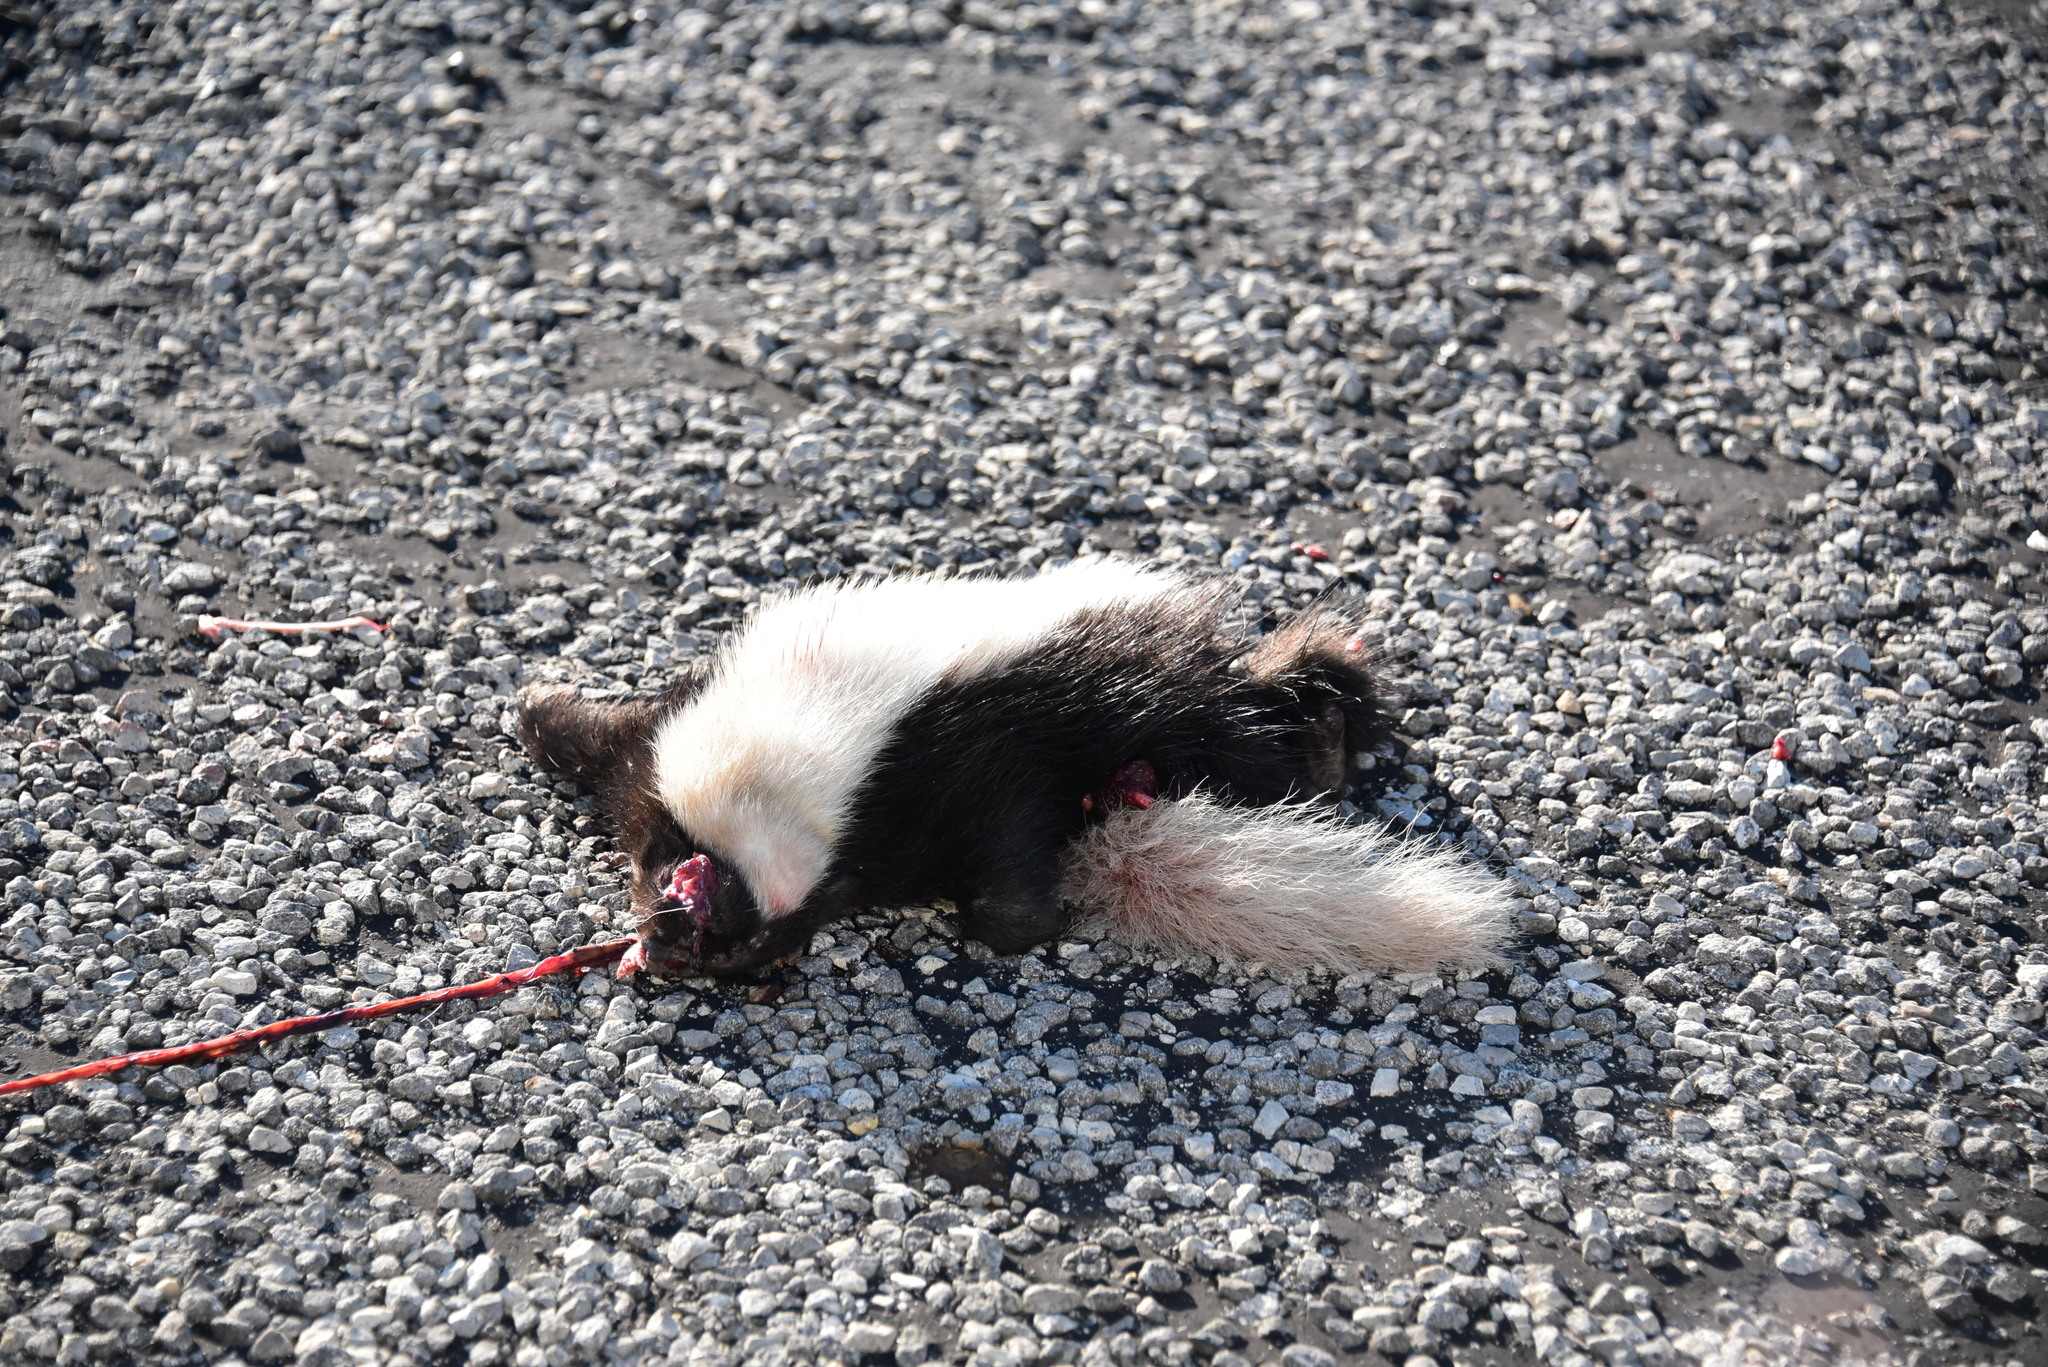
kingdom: Animalia
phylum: Chordata
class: Mammalia
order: Carnivora
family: Mephitidae
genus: Conepatus
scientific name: Conepatus leuconotus
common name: Eastern hog-nosed skunk
